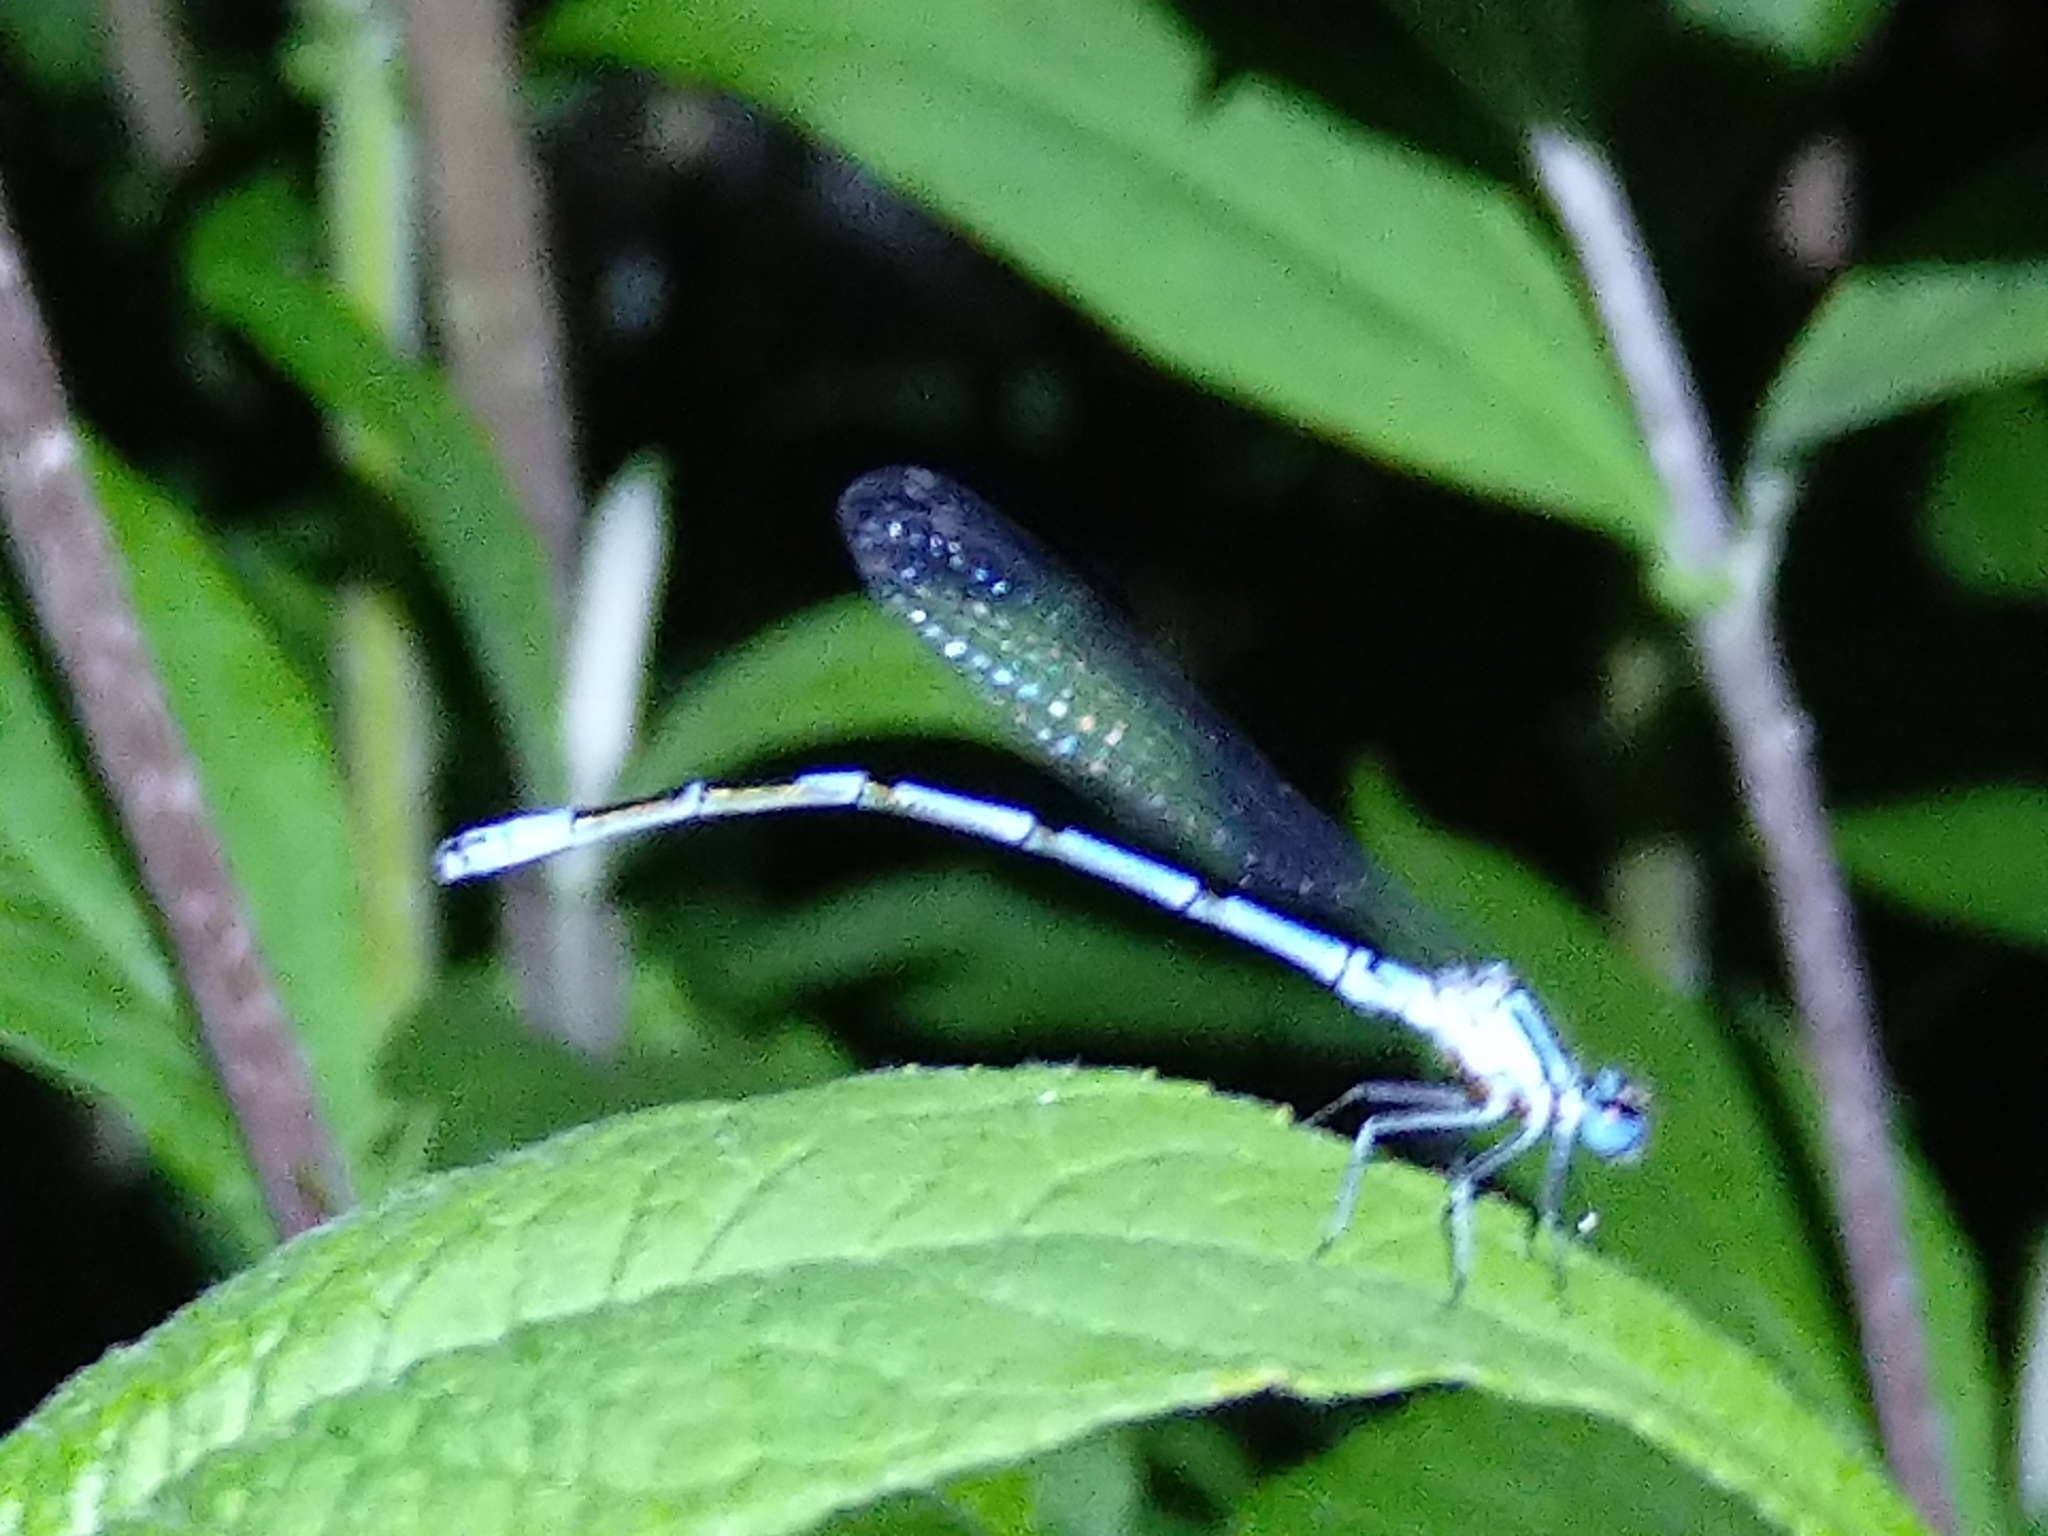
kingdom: Animalia
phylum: Arthropoda
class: Insecta
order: Odonata
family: Coenagrionidae
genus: Coenagrion
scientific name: Coenagrion puella
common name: Azure damselfly
